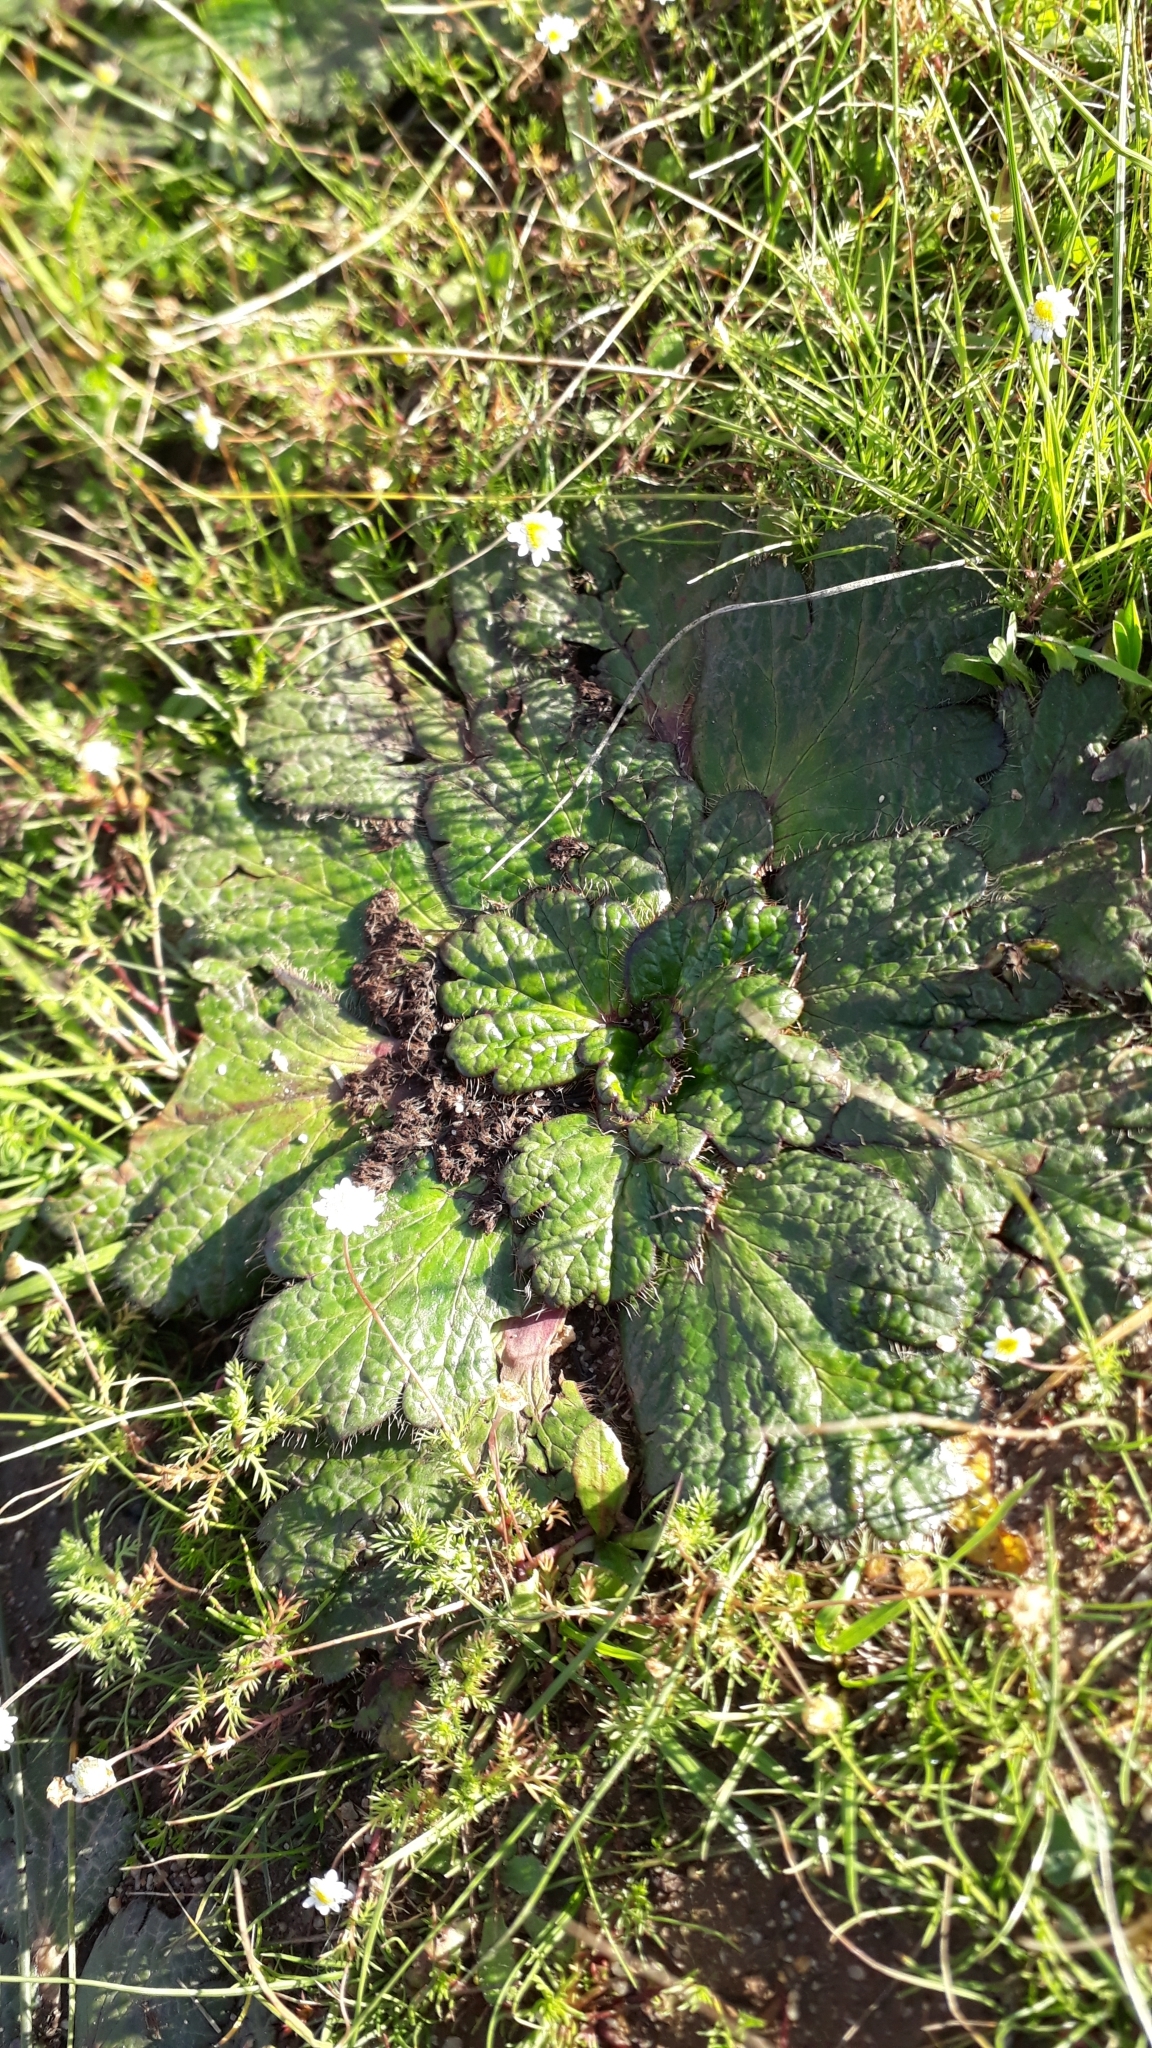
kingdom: Plantae
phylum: Tracheophyta
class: Magnoliopsida
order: Apiales
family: Apiaceae
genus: Arctopus
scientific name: Arctopus echinatus
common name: Platdoring
